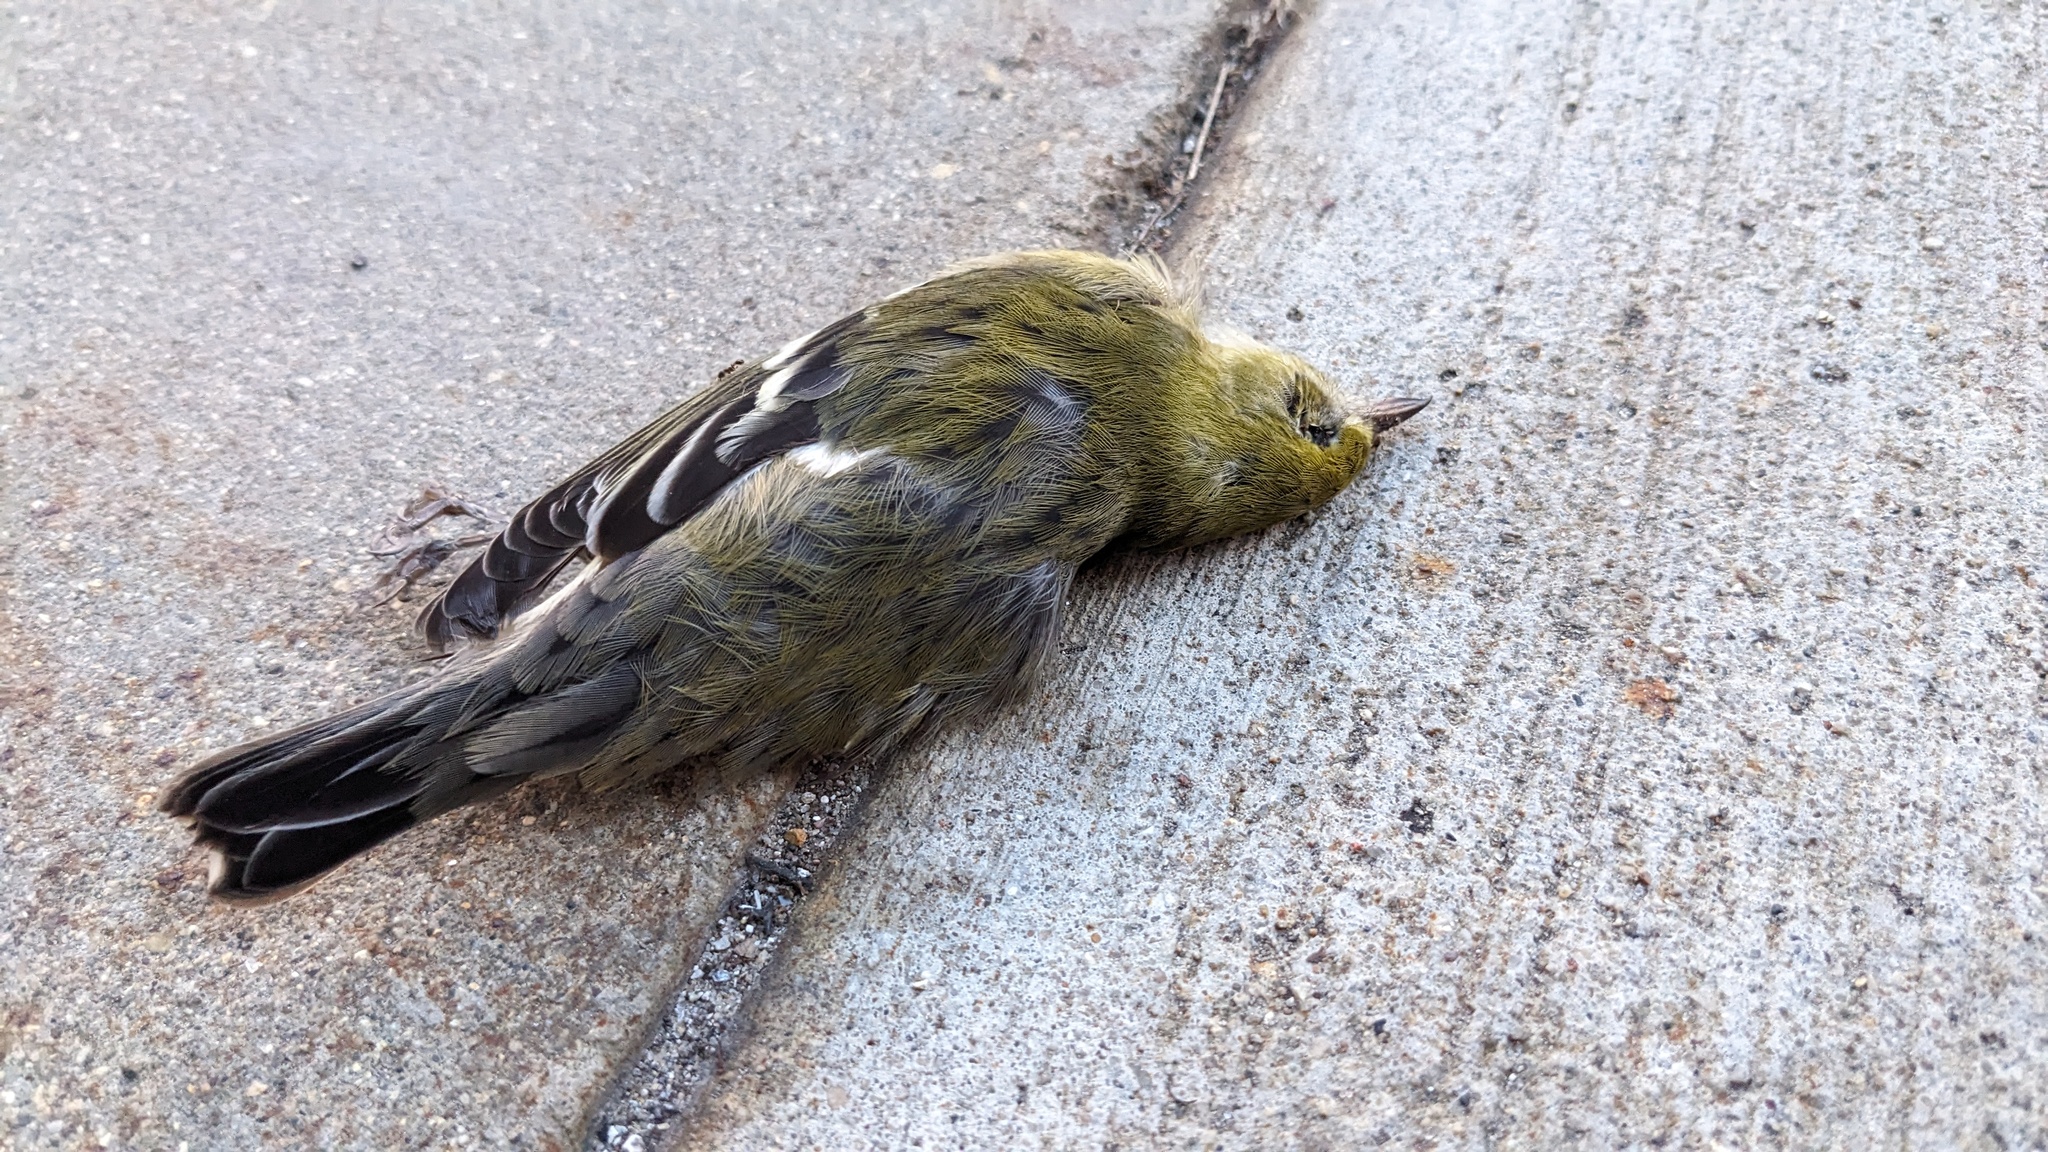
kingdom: Animalia
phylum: Chordata
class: Aves
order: Passeriformes
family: Parulidae
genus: Setophaga
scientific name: Setophaga striata
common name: Blackpoll warbler
